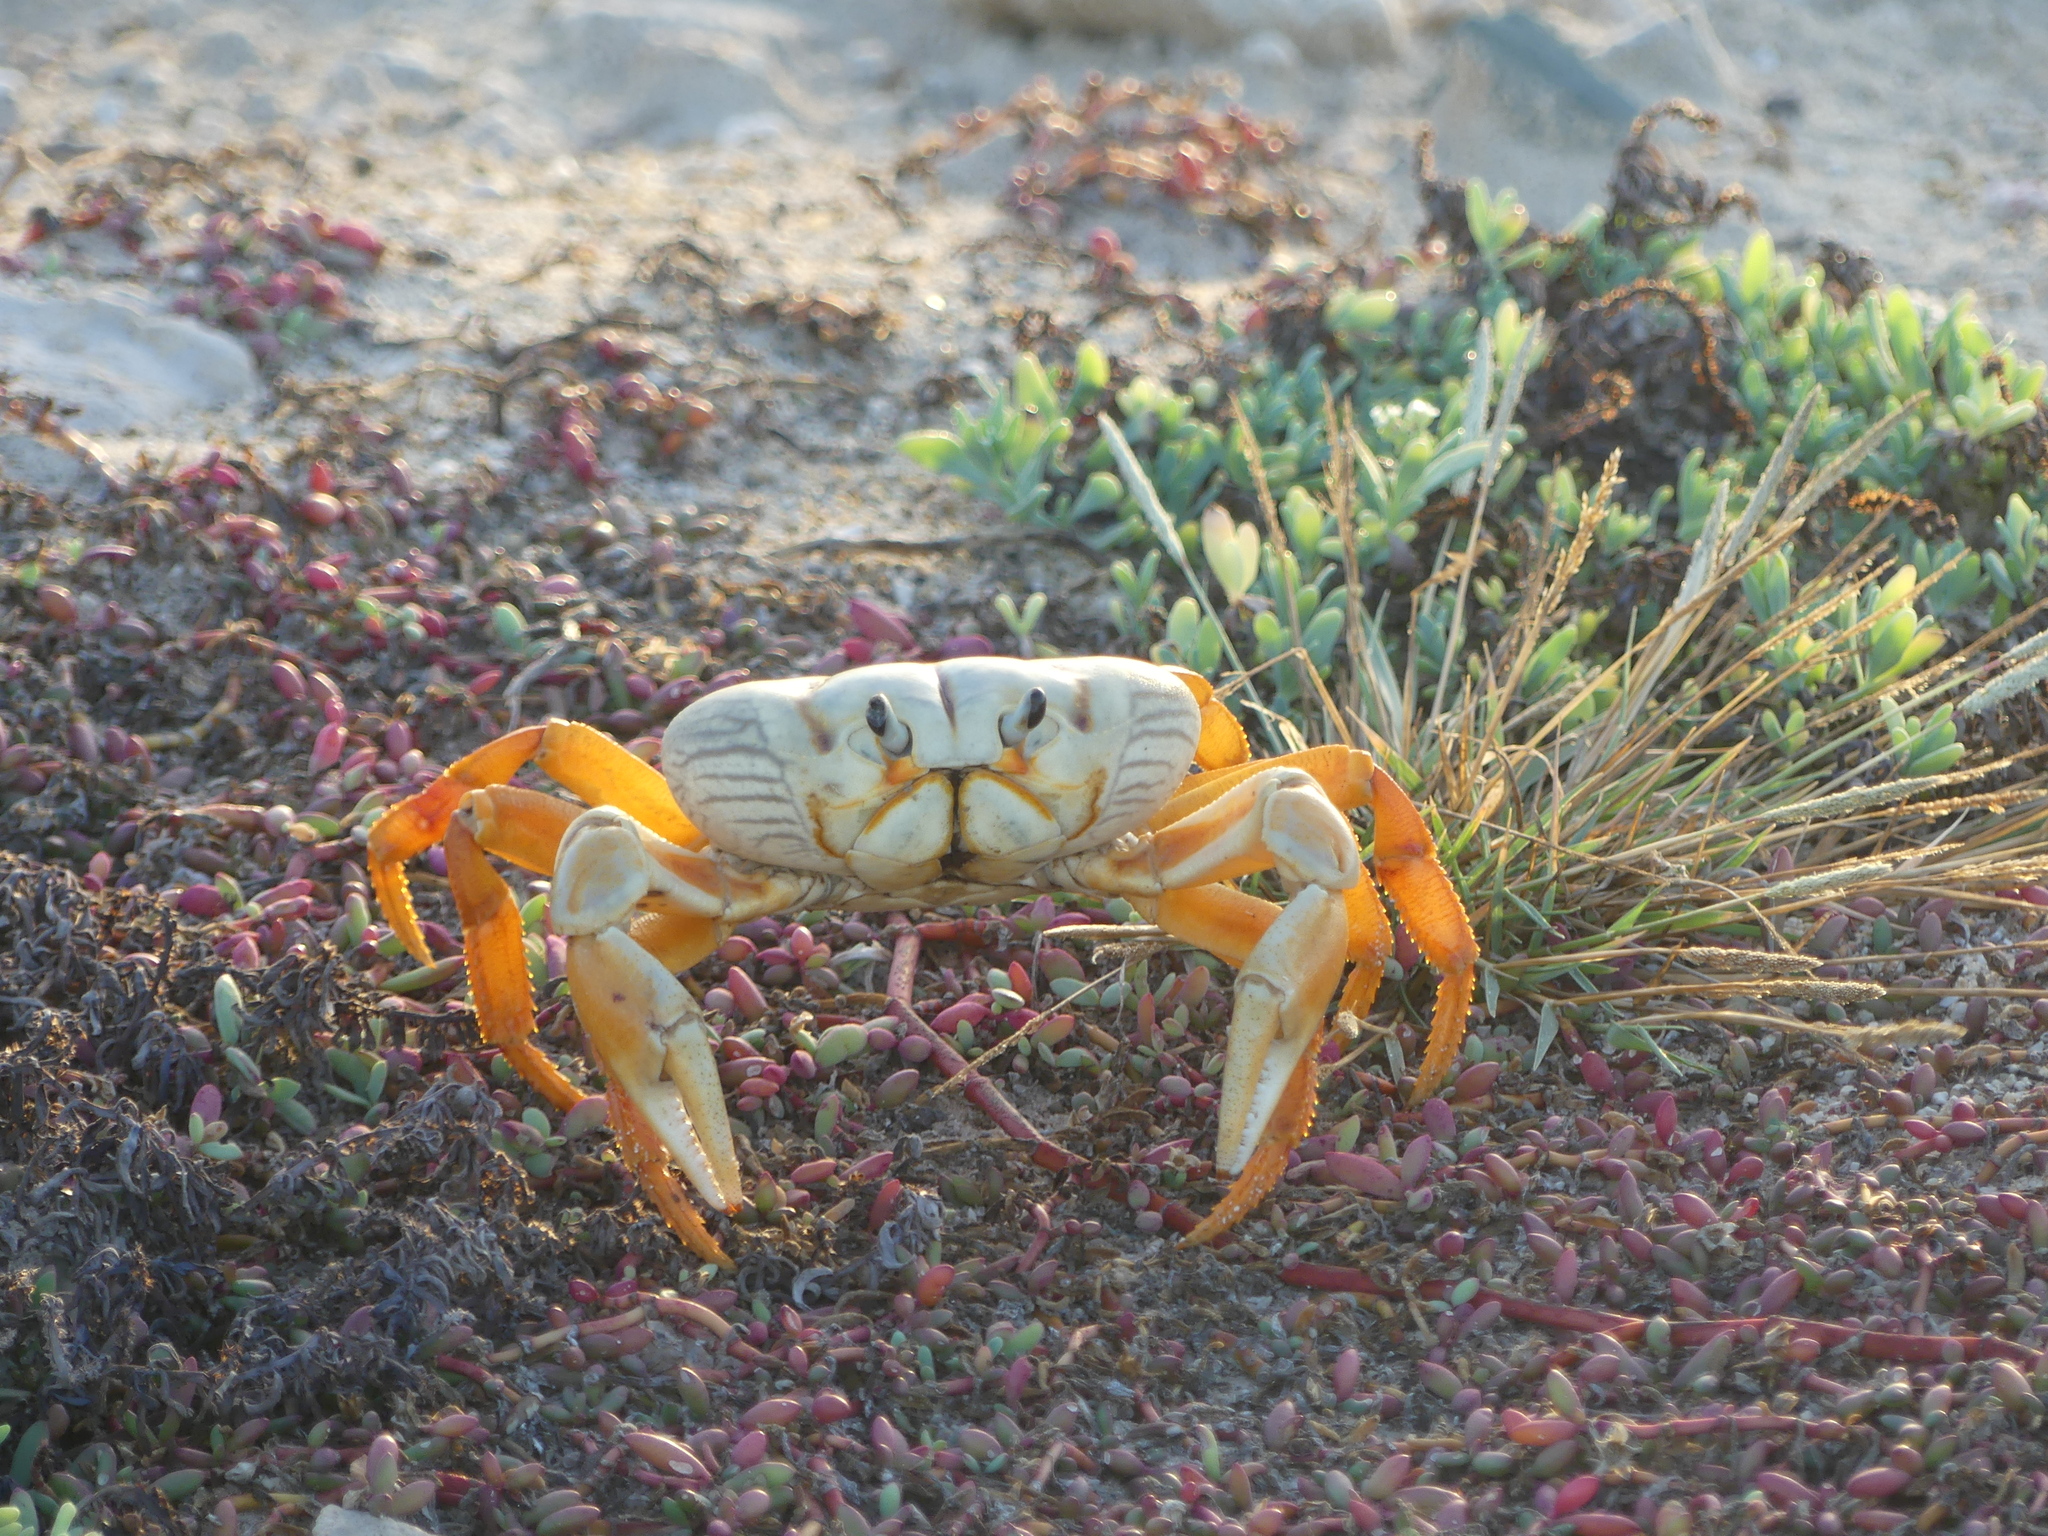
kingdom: Animalia
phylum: Arthropoda
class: Malacostraca
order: Decapoda
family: Gecarcinidae
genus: Gecarcinus
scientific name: Gecarcinus ruricola
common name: Black land crab
